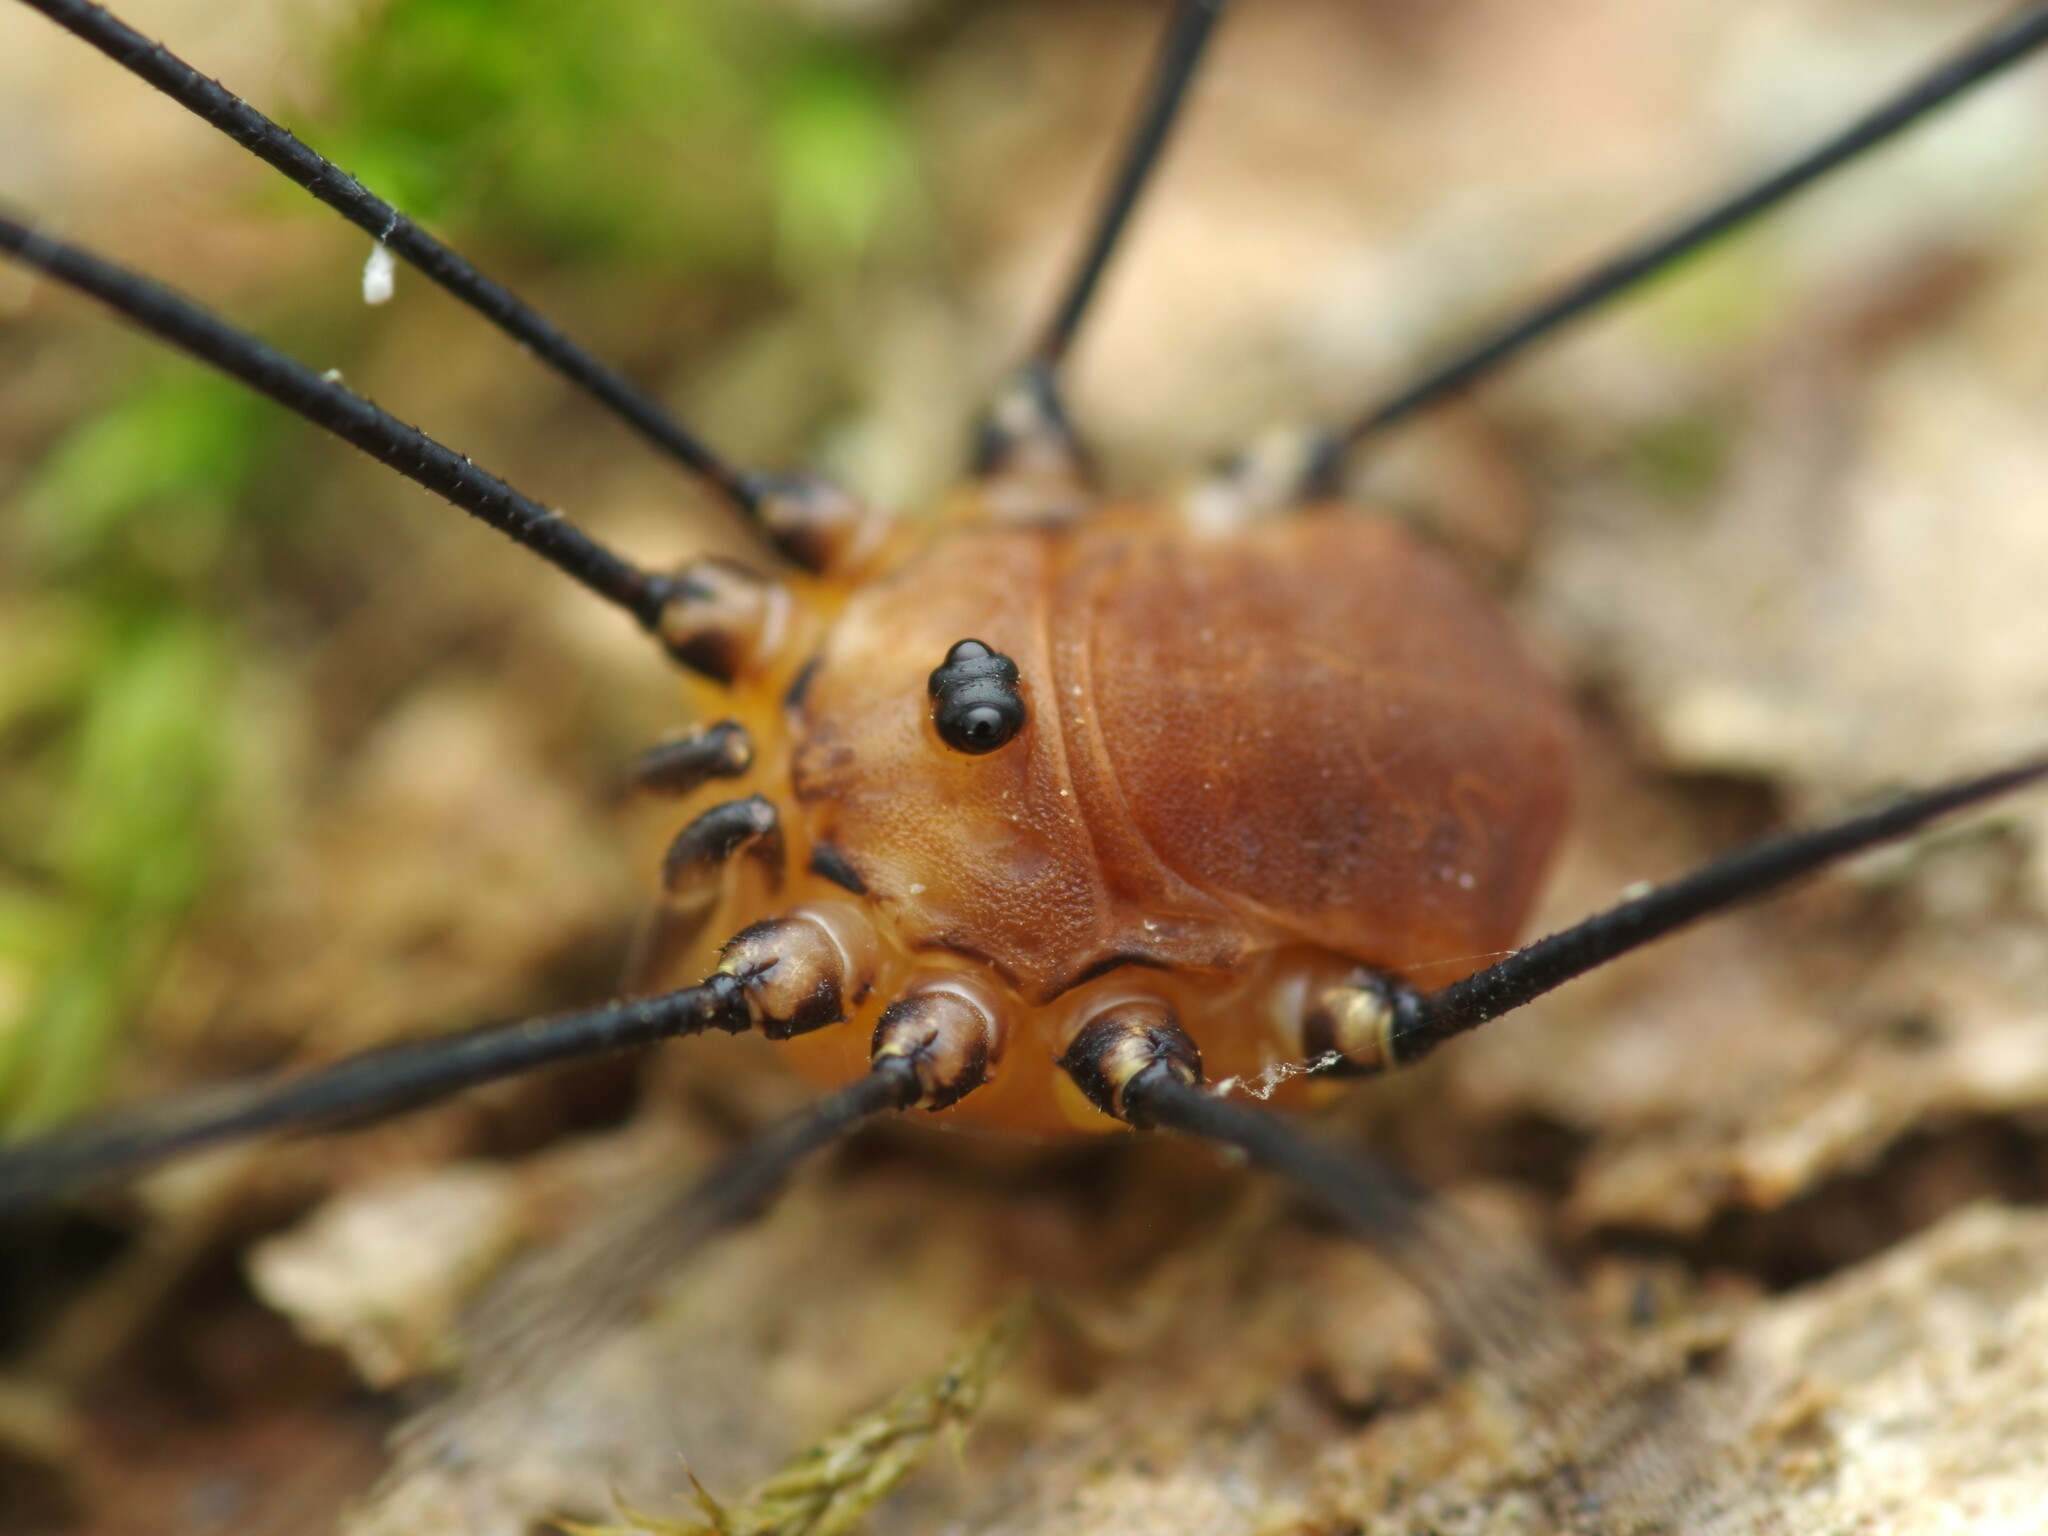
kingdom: Animalia
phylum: Arthropoda
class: Arachnida
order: Opiliones
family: Sclerosomatidae
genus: Leiobunum
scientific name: Leiobunum rotundum
